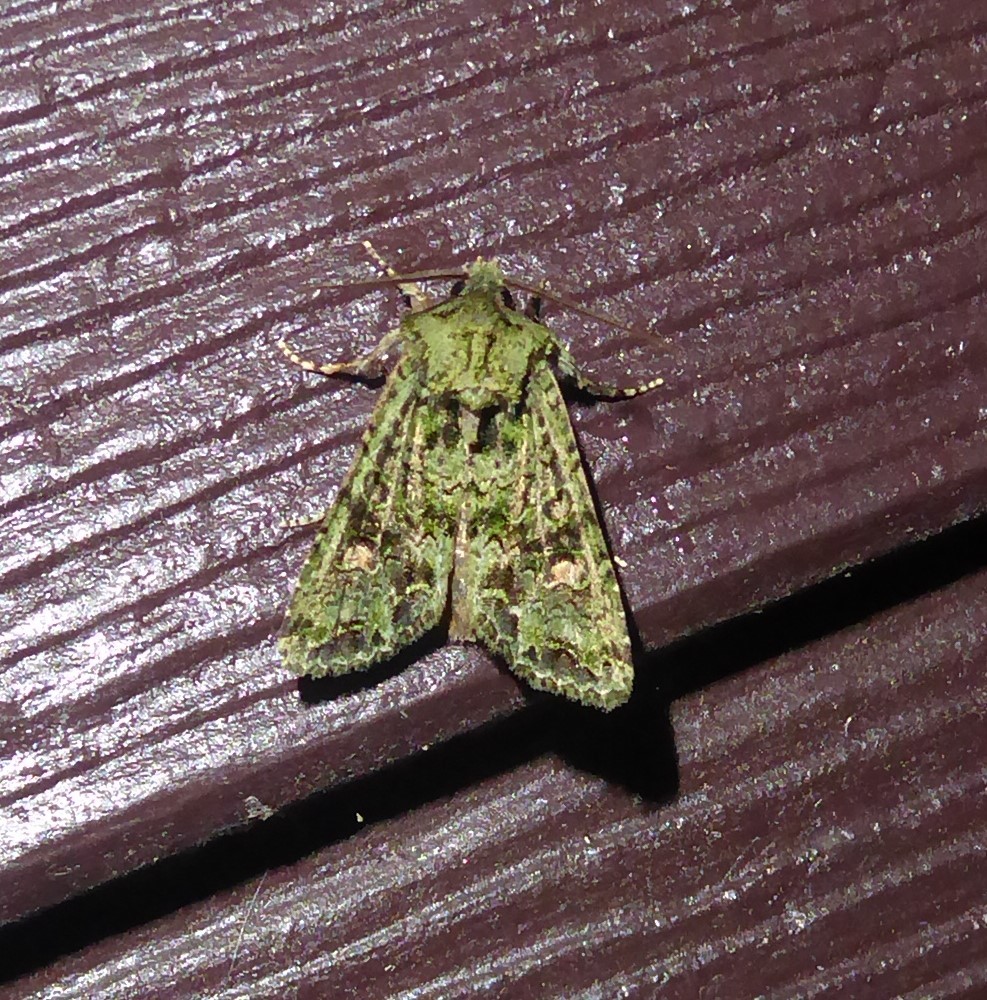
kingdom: Animalia
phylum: Arthropoda
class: Insecta
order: Lepidoptera
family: Noctuidae
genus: Ichneutica
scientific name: Ichneutica
